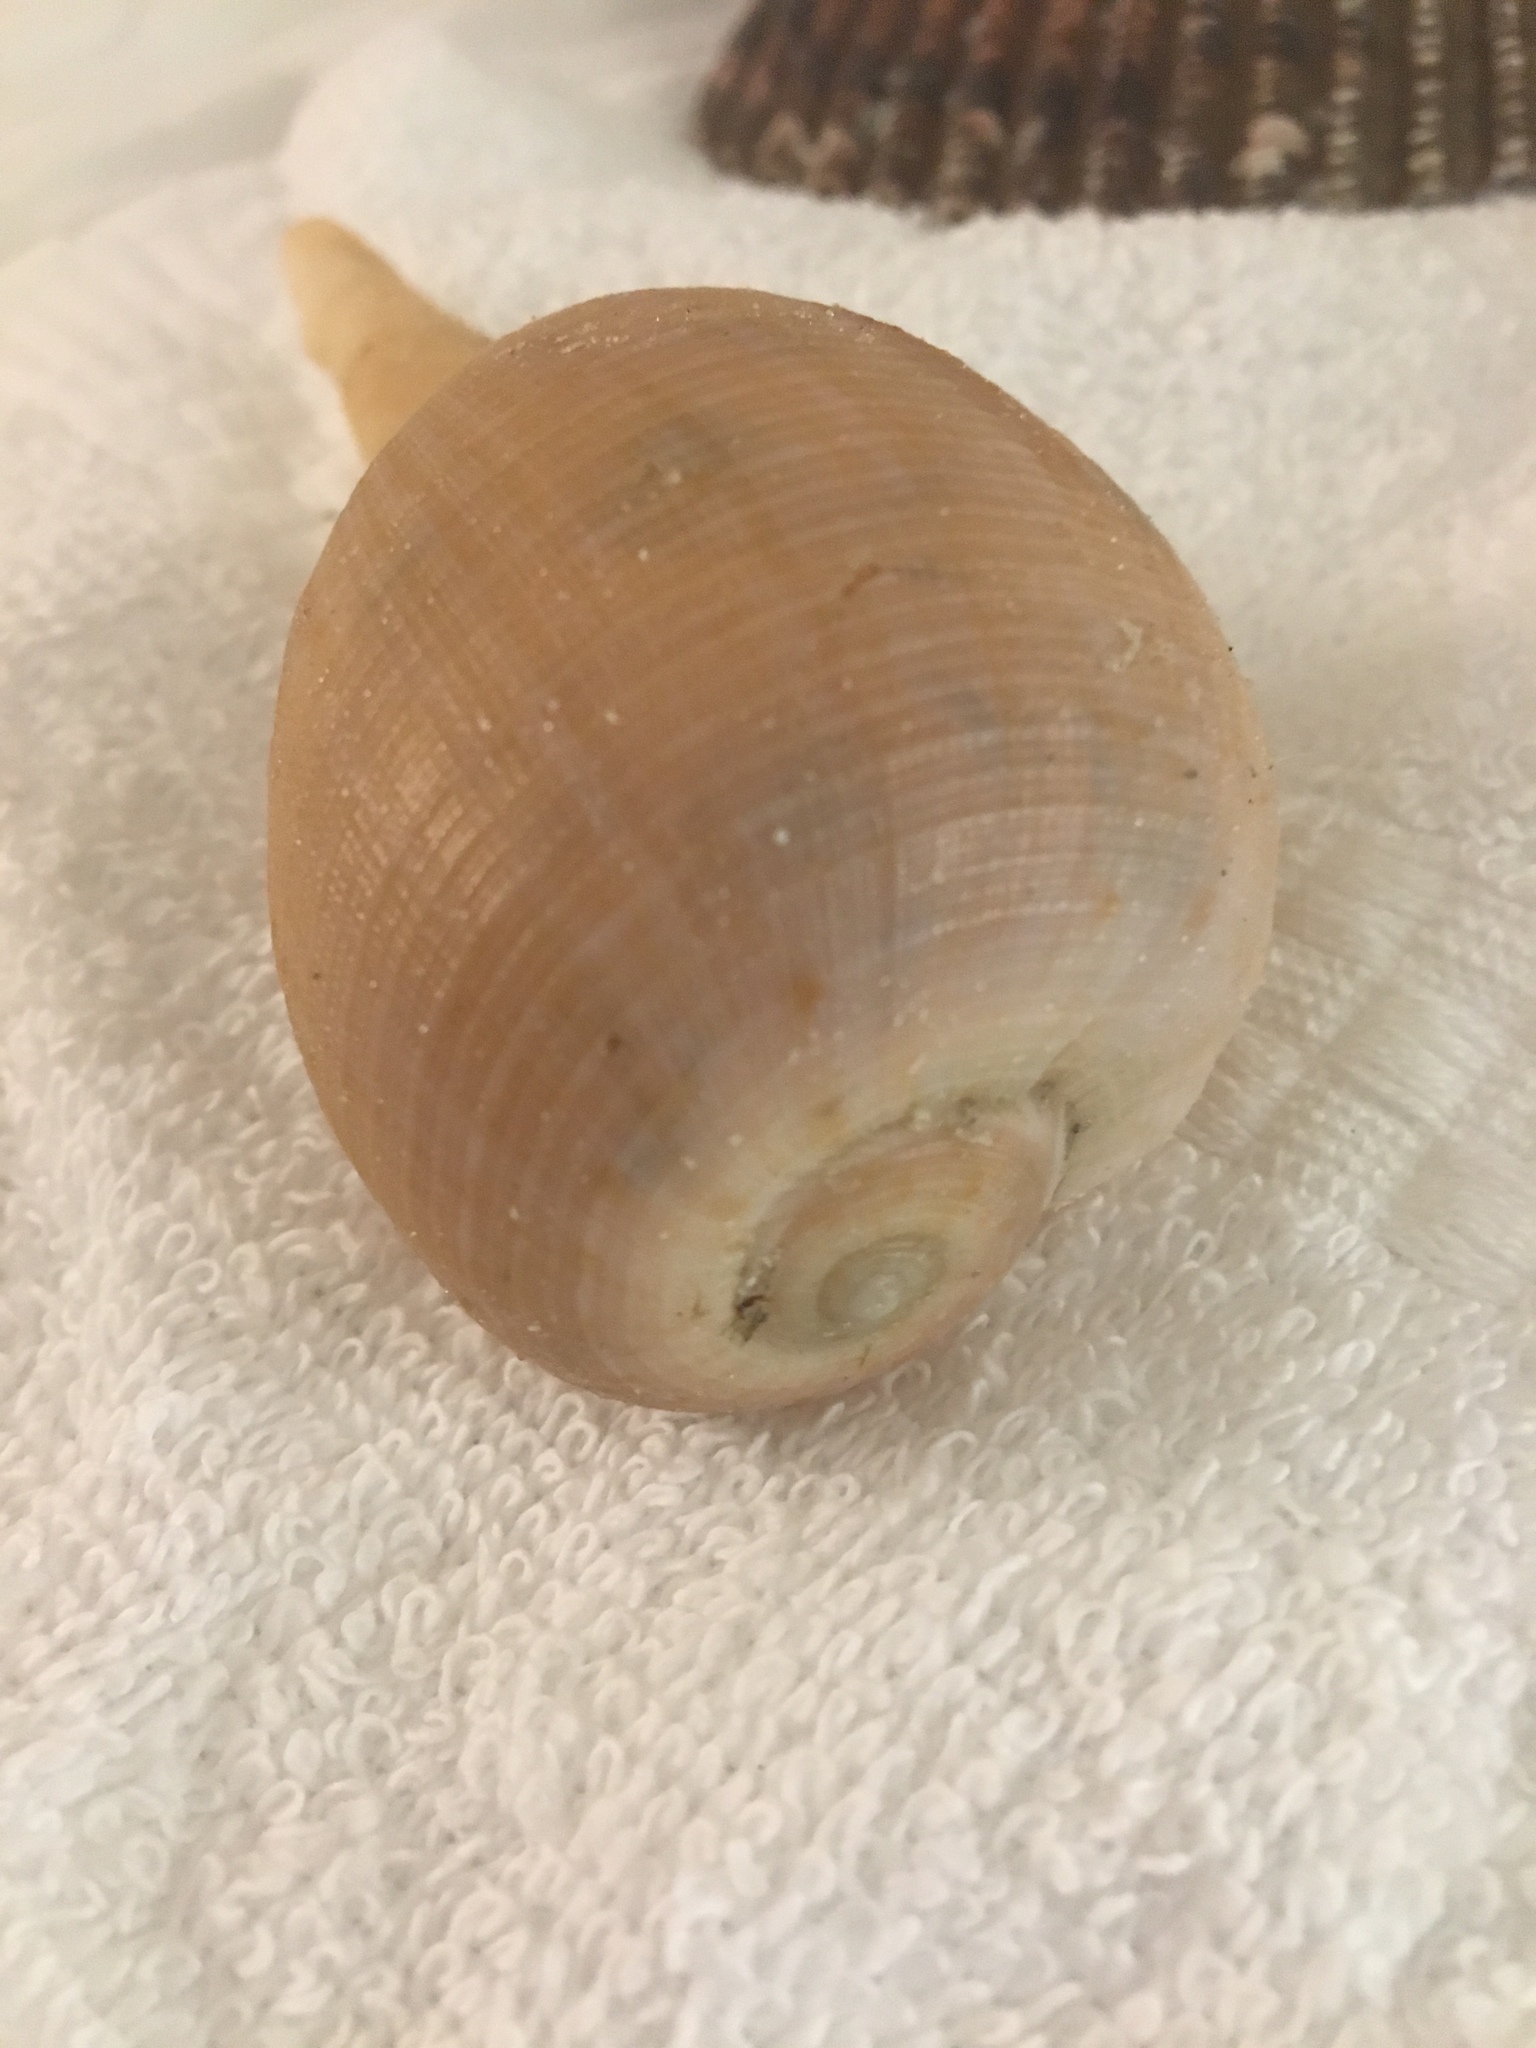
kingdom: Animalia
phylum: Mollusca
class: Gastropoda
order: Littorinimorpha
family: Ficidae
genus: Ficus
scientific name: Ficus papyratia
